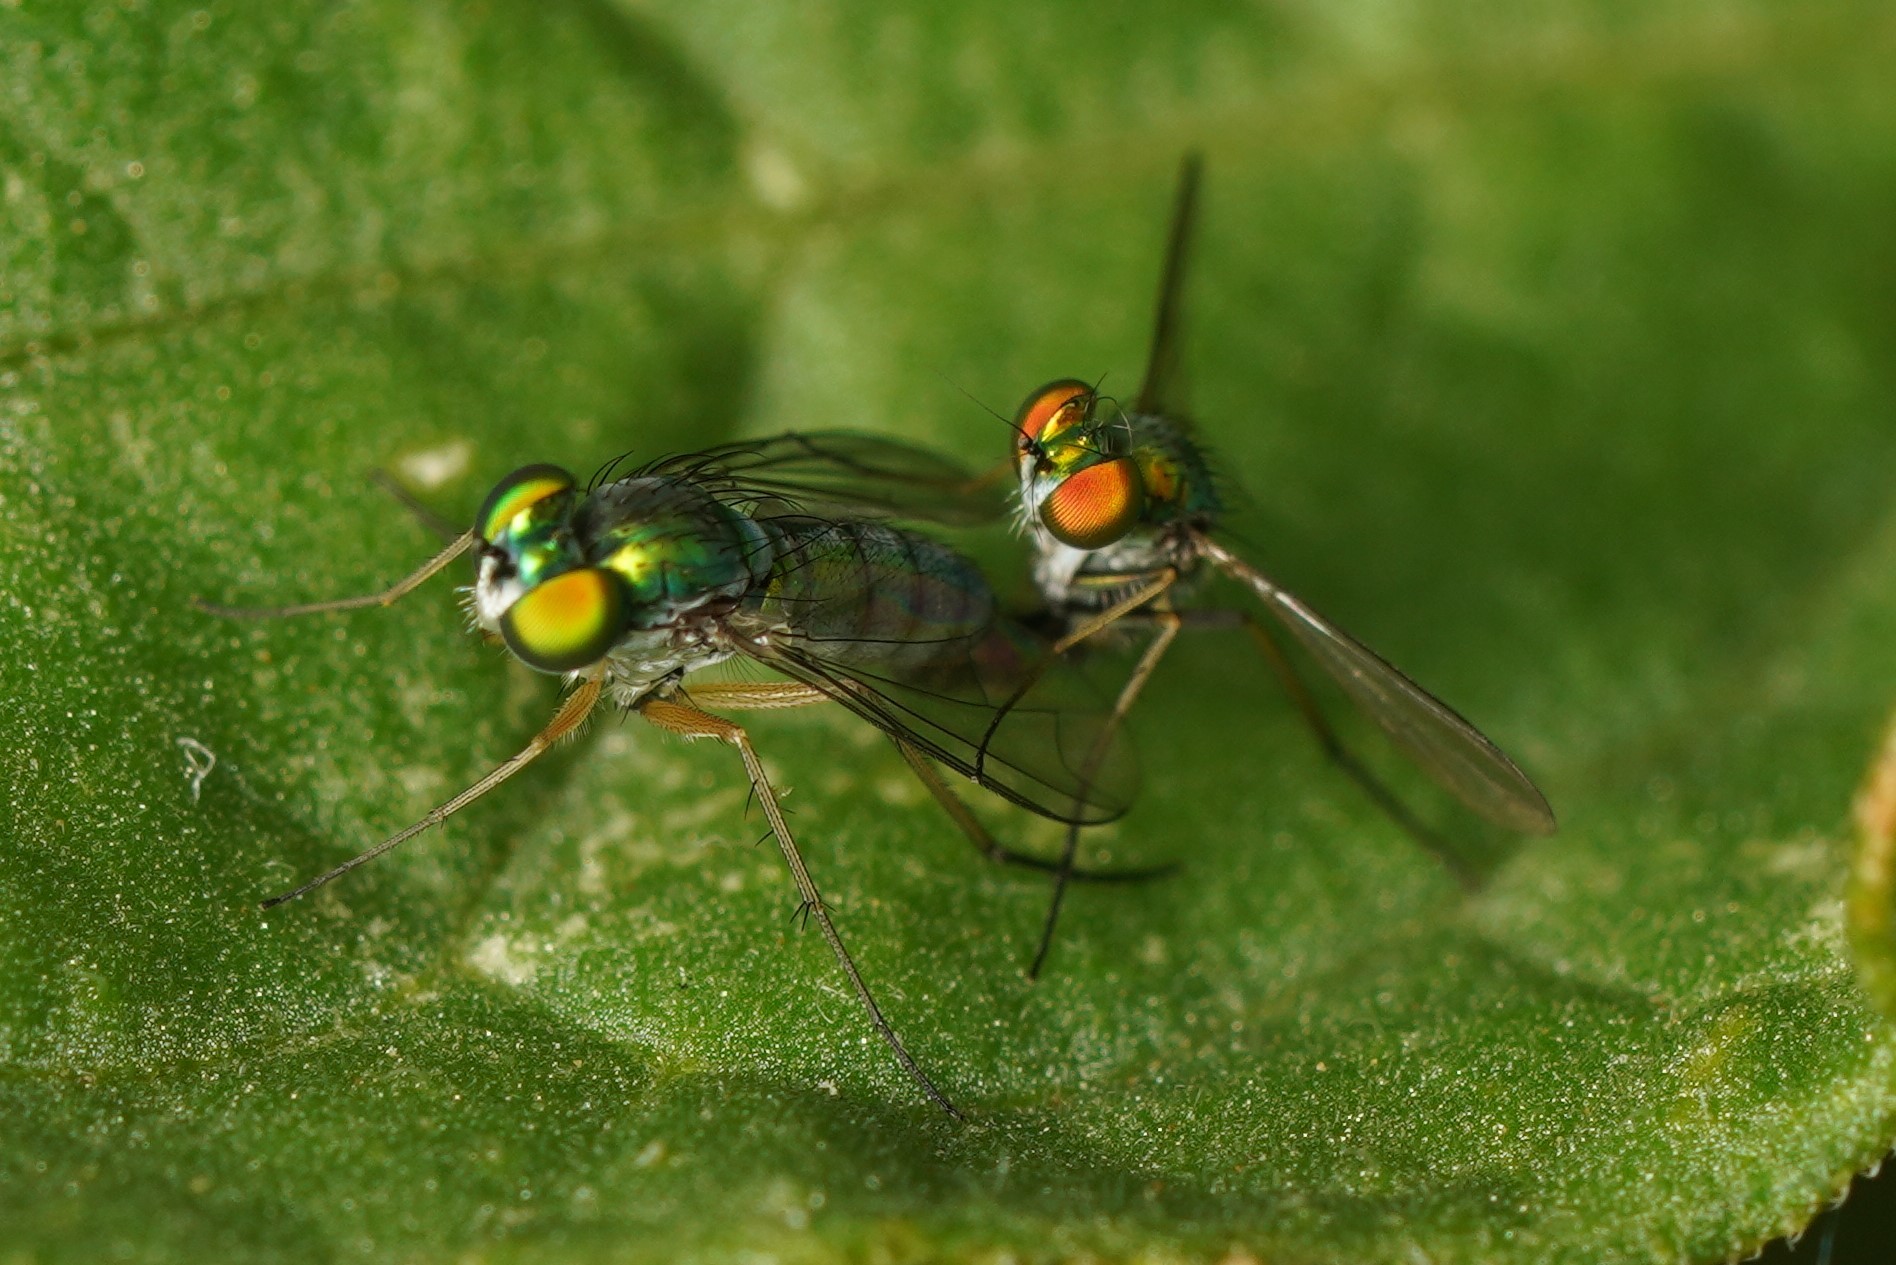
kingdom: Animalia
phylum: Arthropoda
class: Insecta
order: Diptera
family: Dolichopodidae
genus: Condylostylus
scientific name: Condylostylus caudatus
